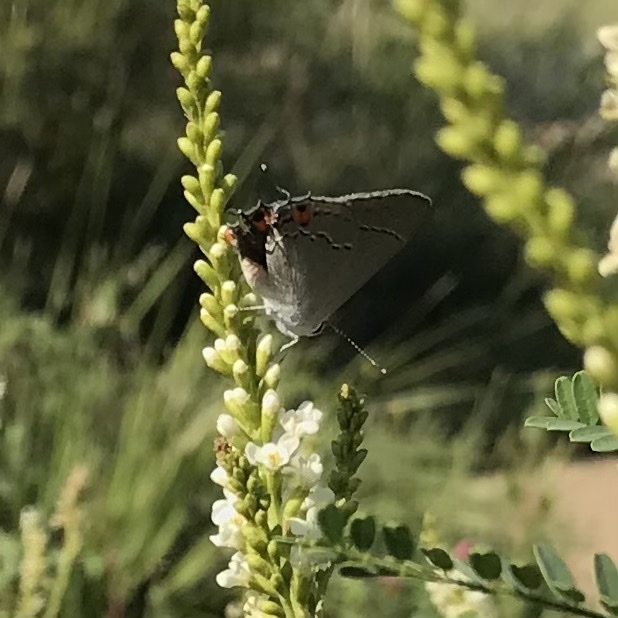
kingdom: Animalia
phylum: Arthropoda
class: Insecta
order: Lepidoptera
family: Lycaenidae
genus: Strymon
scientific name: Strymon melinus
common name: Gray hairstreak
